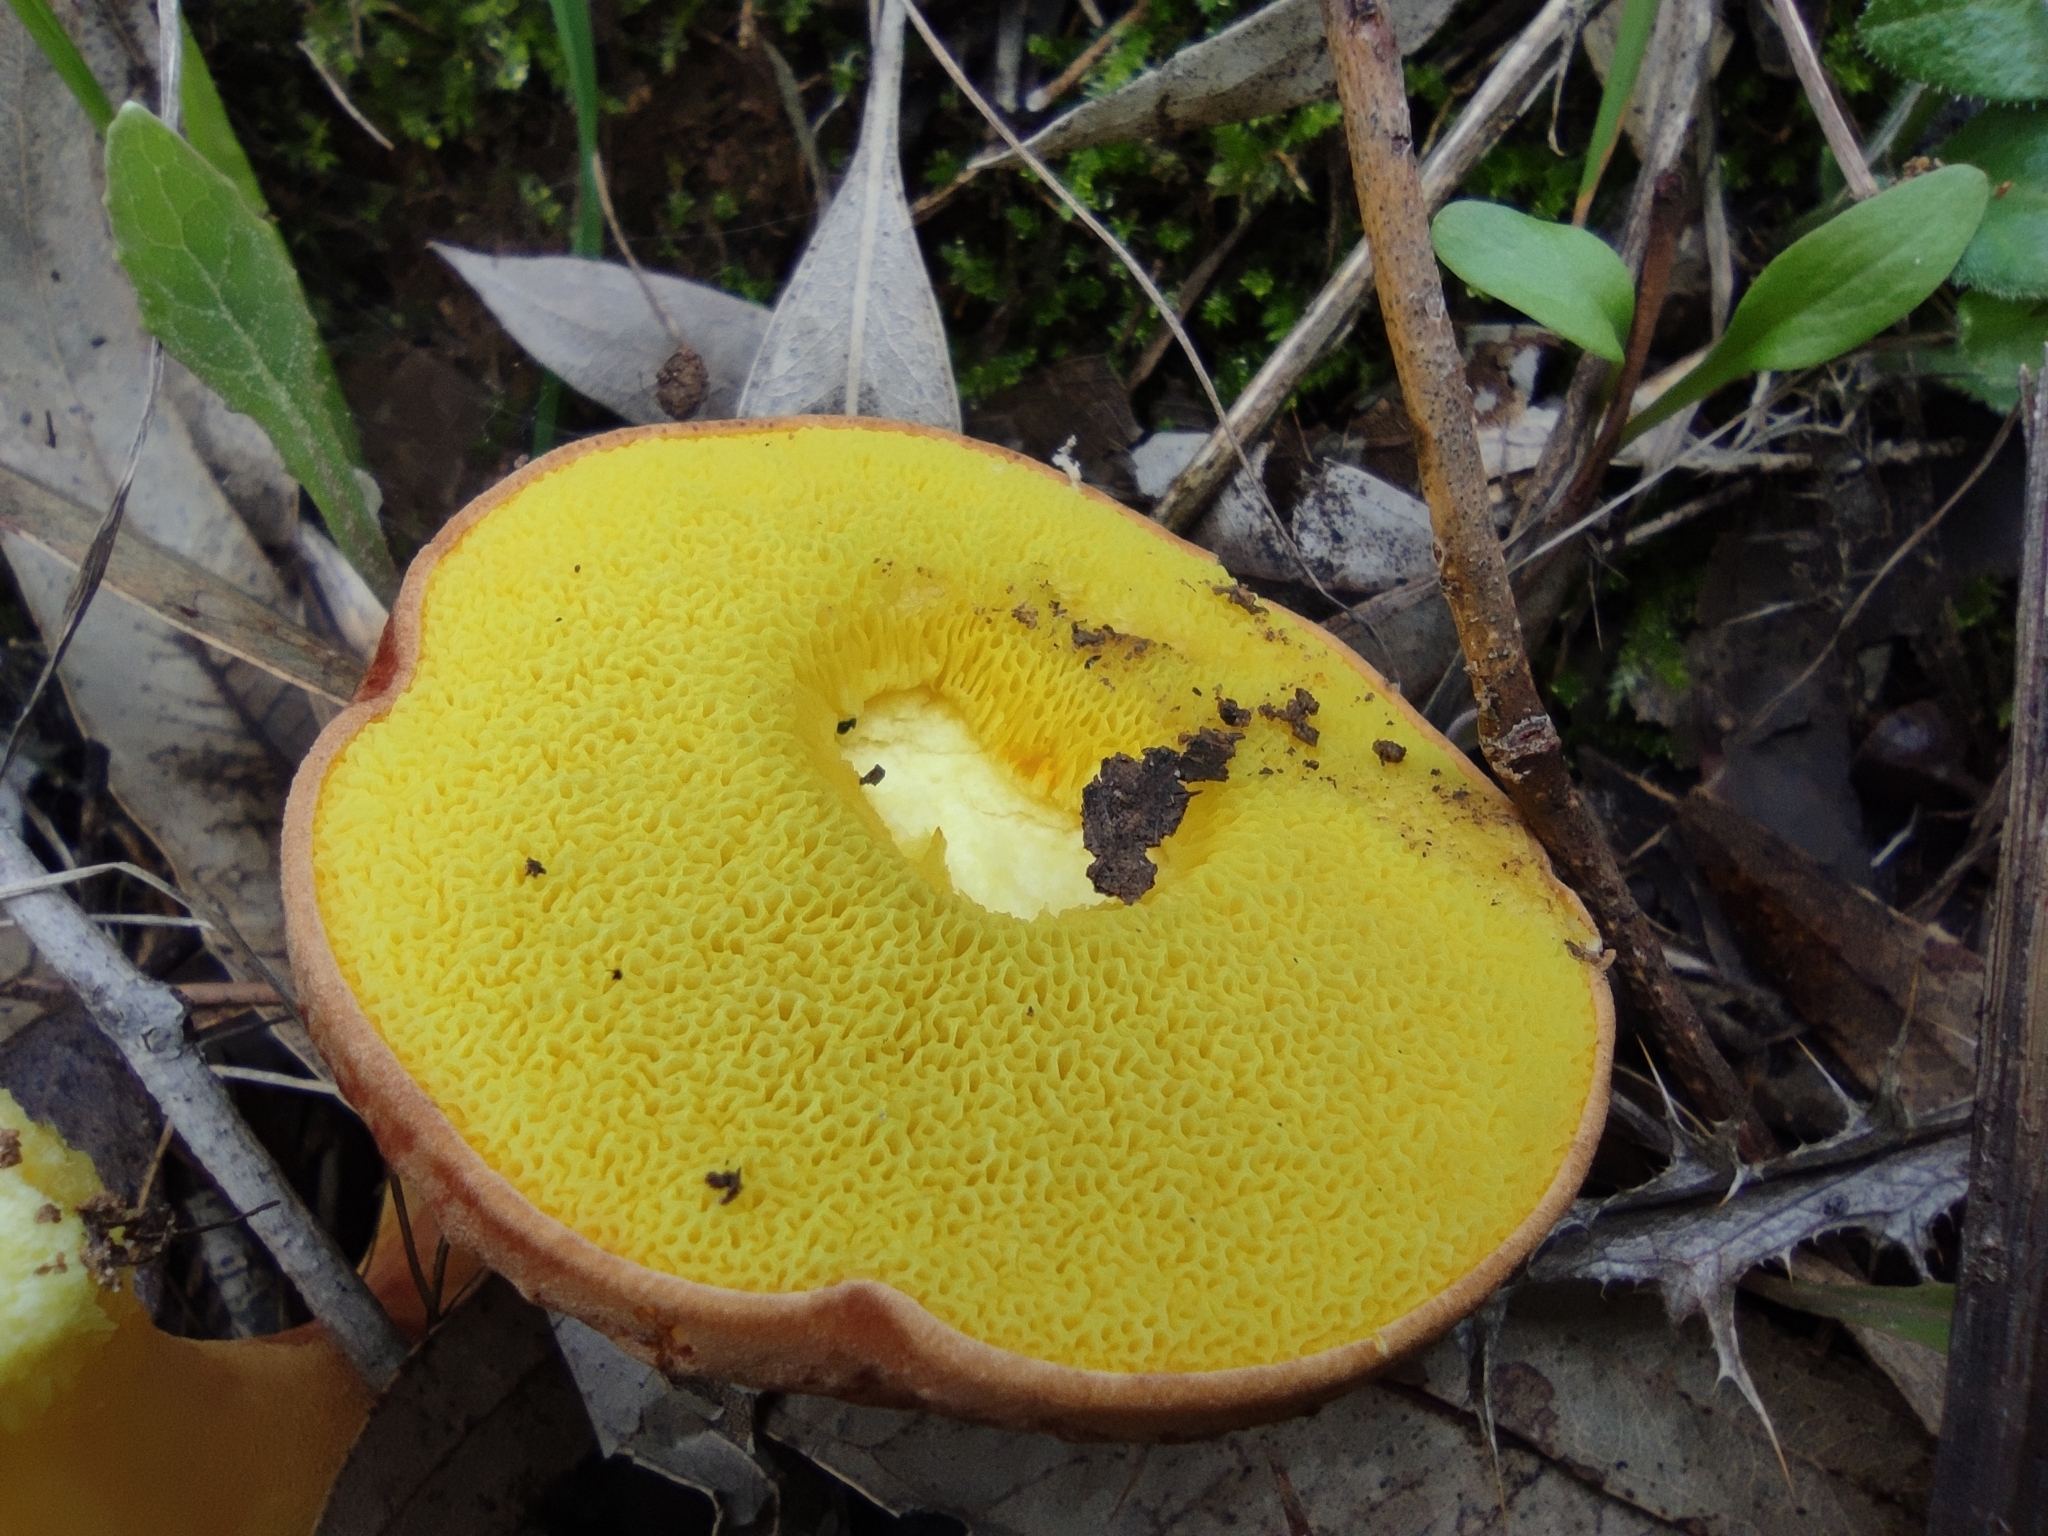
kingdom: Fungi
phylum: Basidiomycota
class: Agaricomycetes
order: Boletales
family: Boletaceae
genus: Xerocomus
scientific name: Xerocomus subtomentosus
